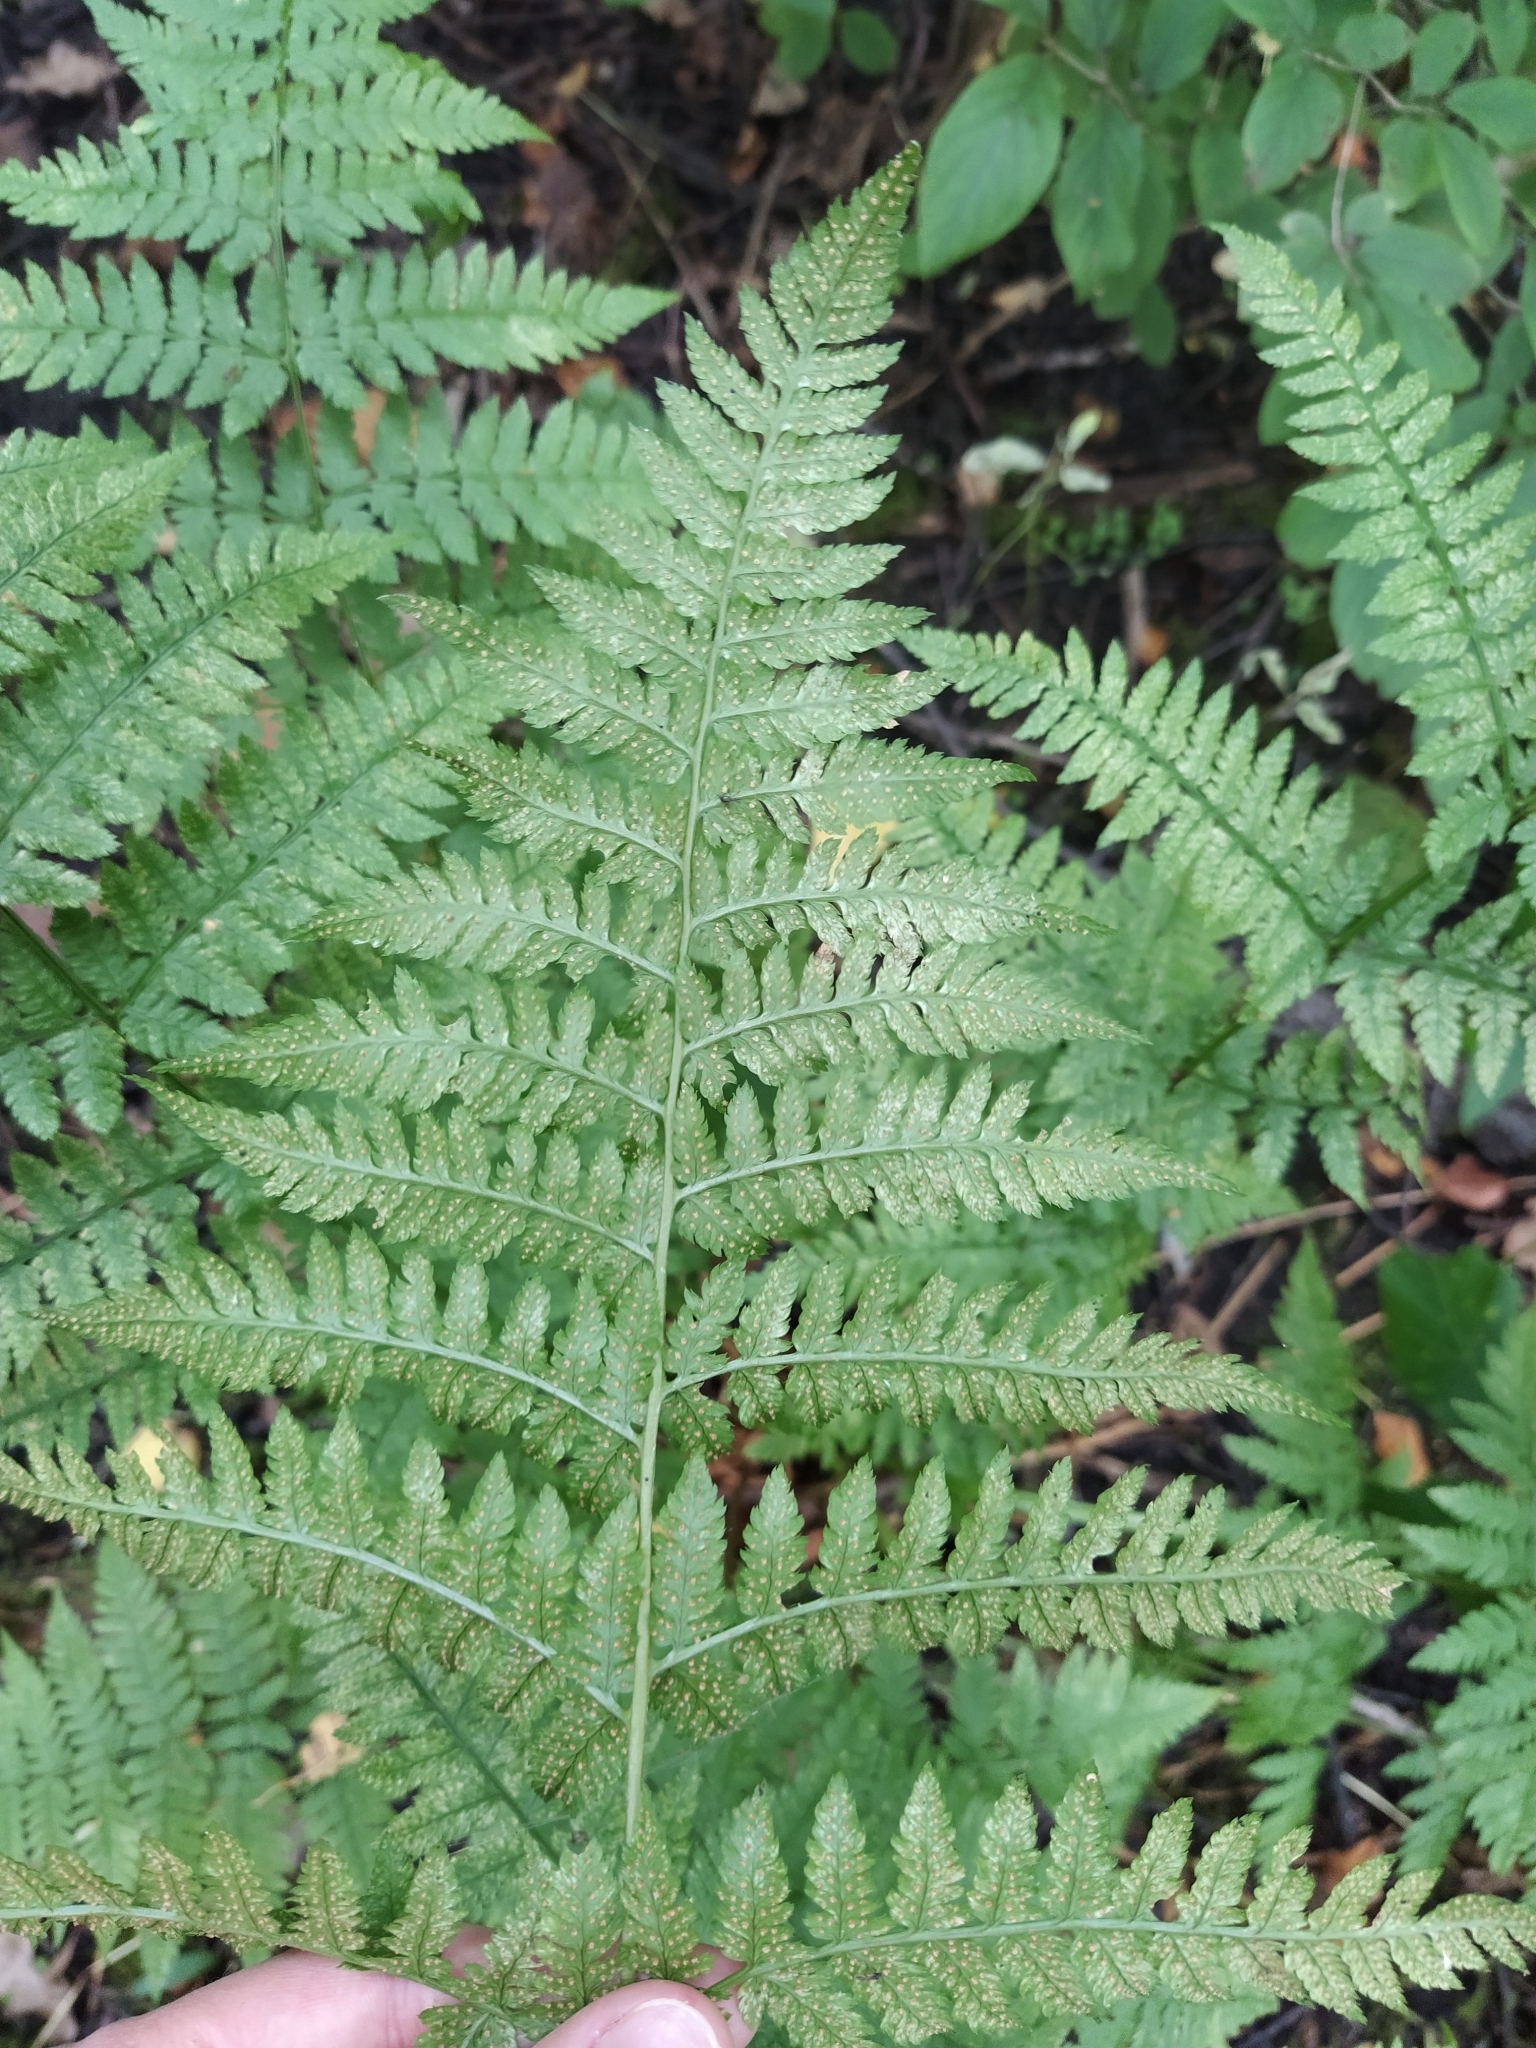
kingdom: Plantae
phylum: Tracheophyta
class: Polypodiopsida
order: Polypodiales
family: Dryopteridaceae
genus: Dryopteris
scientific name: Dryopteris carthusiana
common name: Narrow buckler-fern
